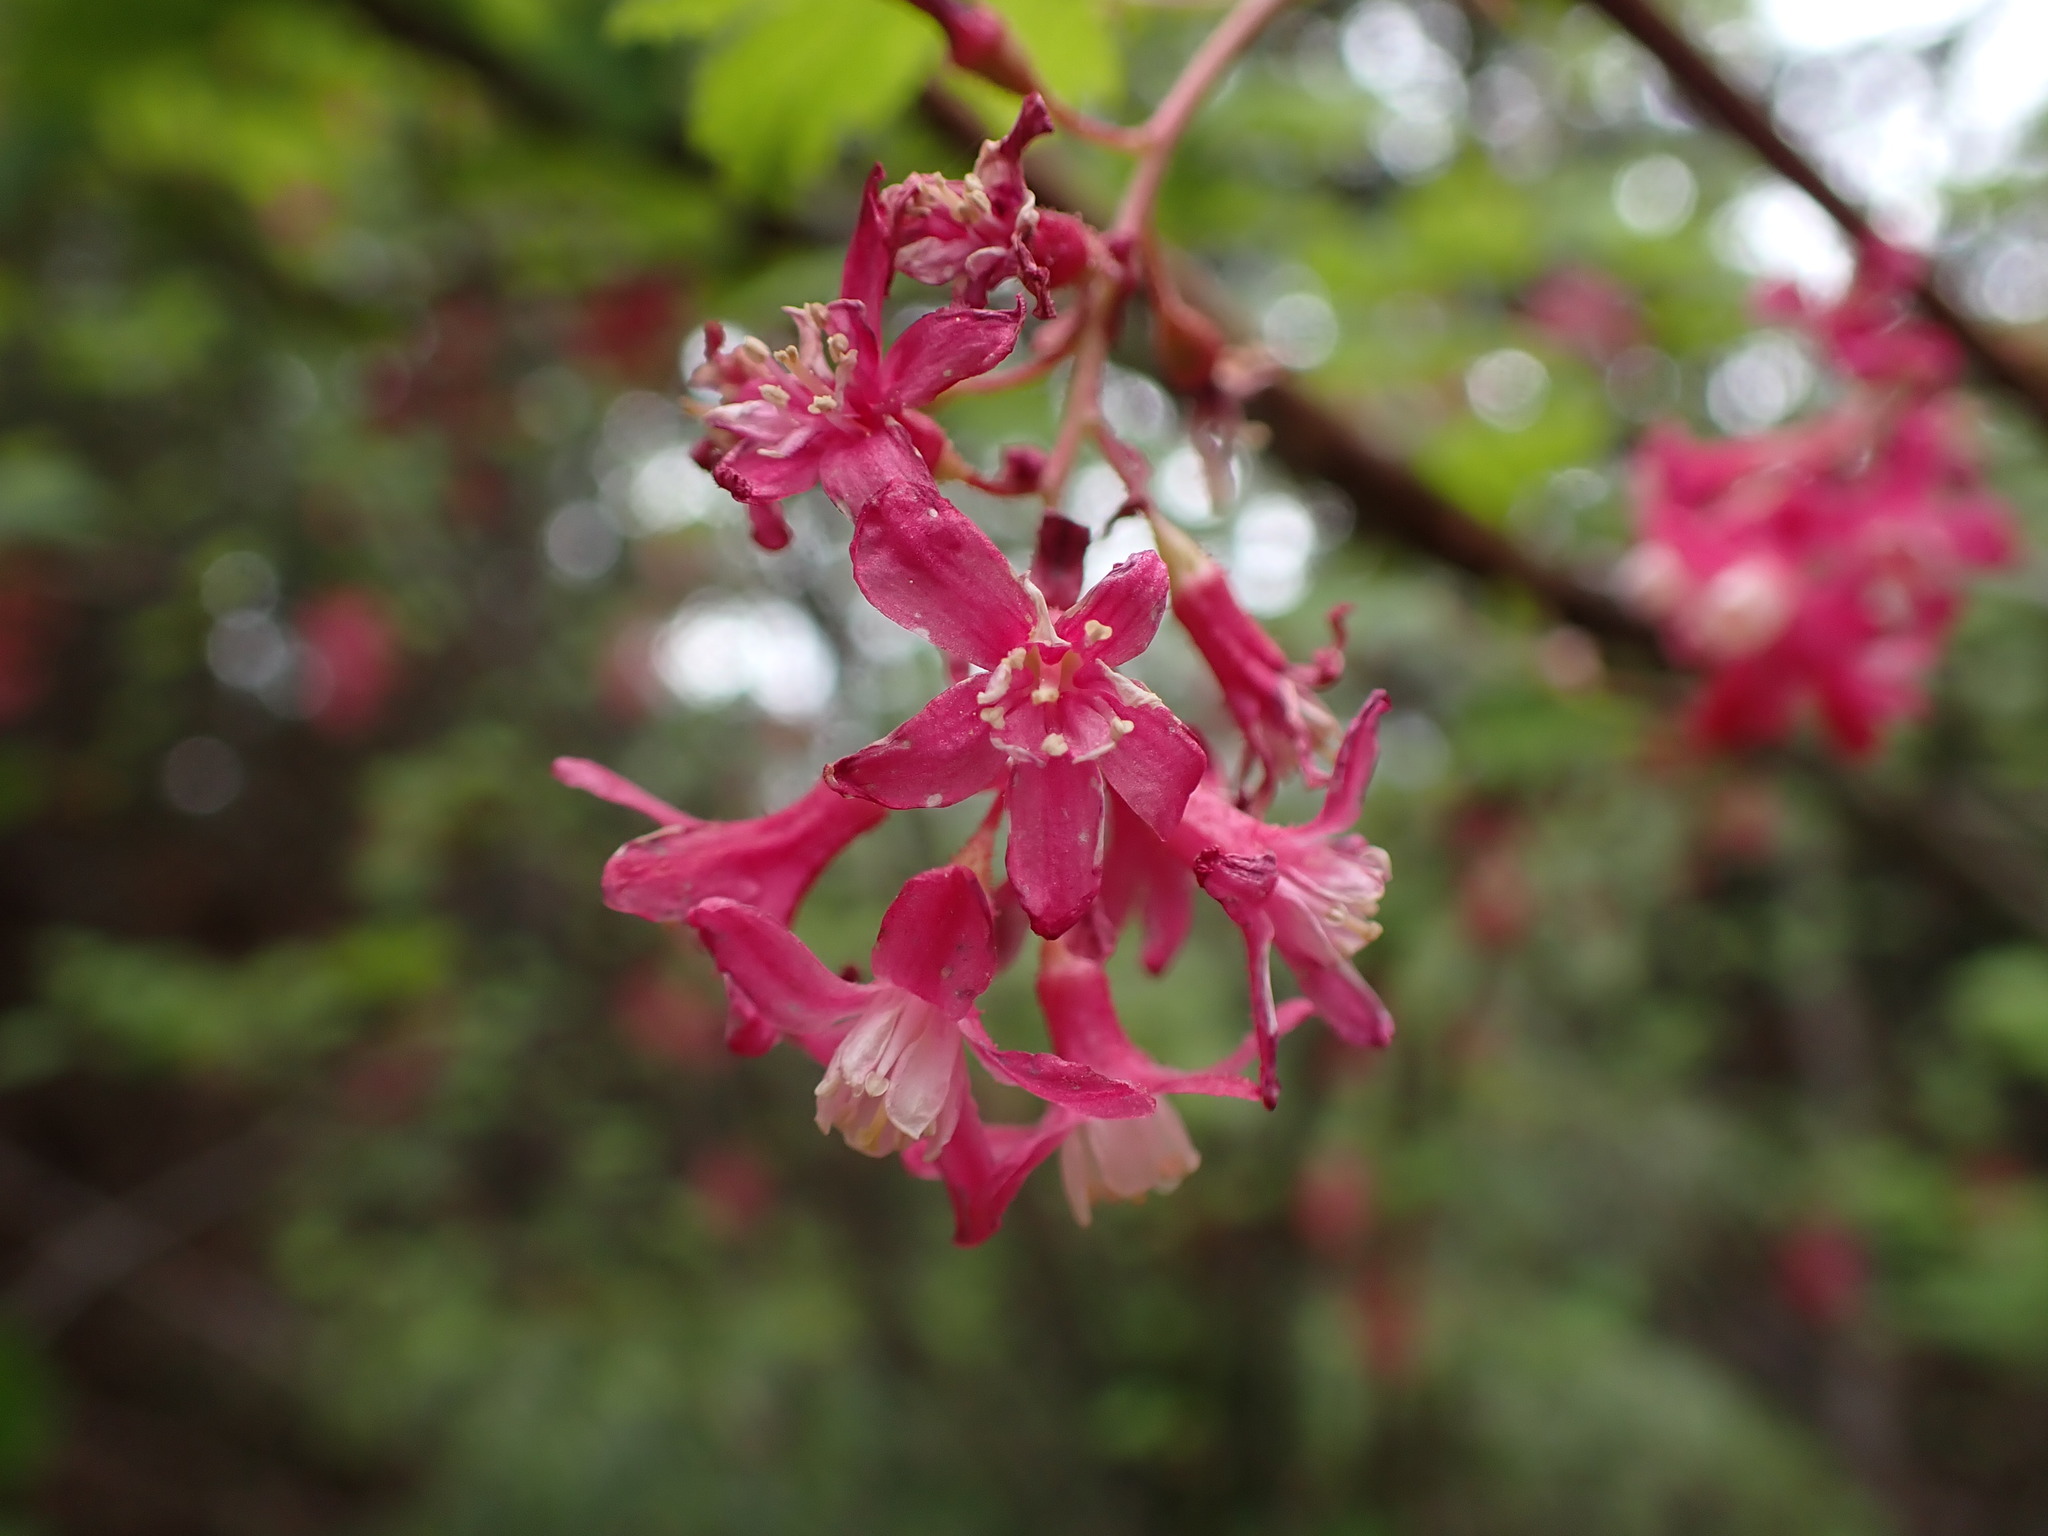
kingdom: Plantae
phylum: Tracheophyta
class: Magnoliopsida
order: Saxifragales
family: Grossulariaceae
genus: Ribes
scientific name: Ribes sanguineum
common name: Flowering currant
